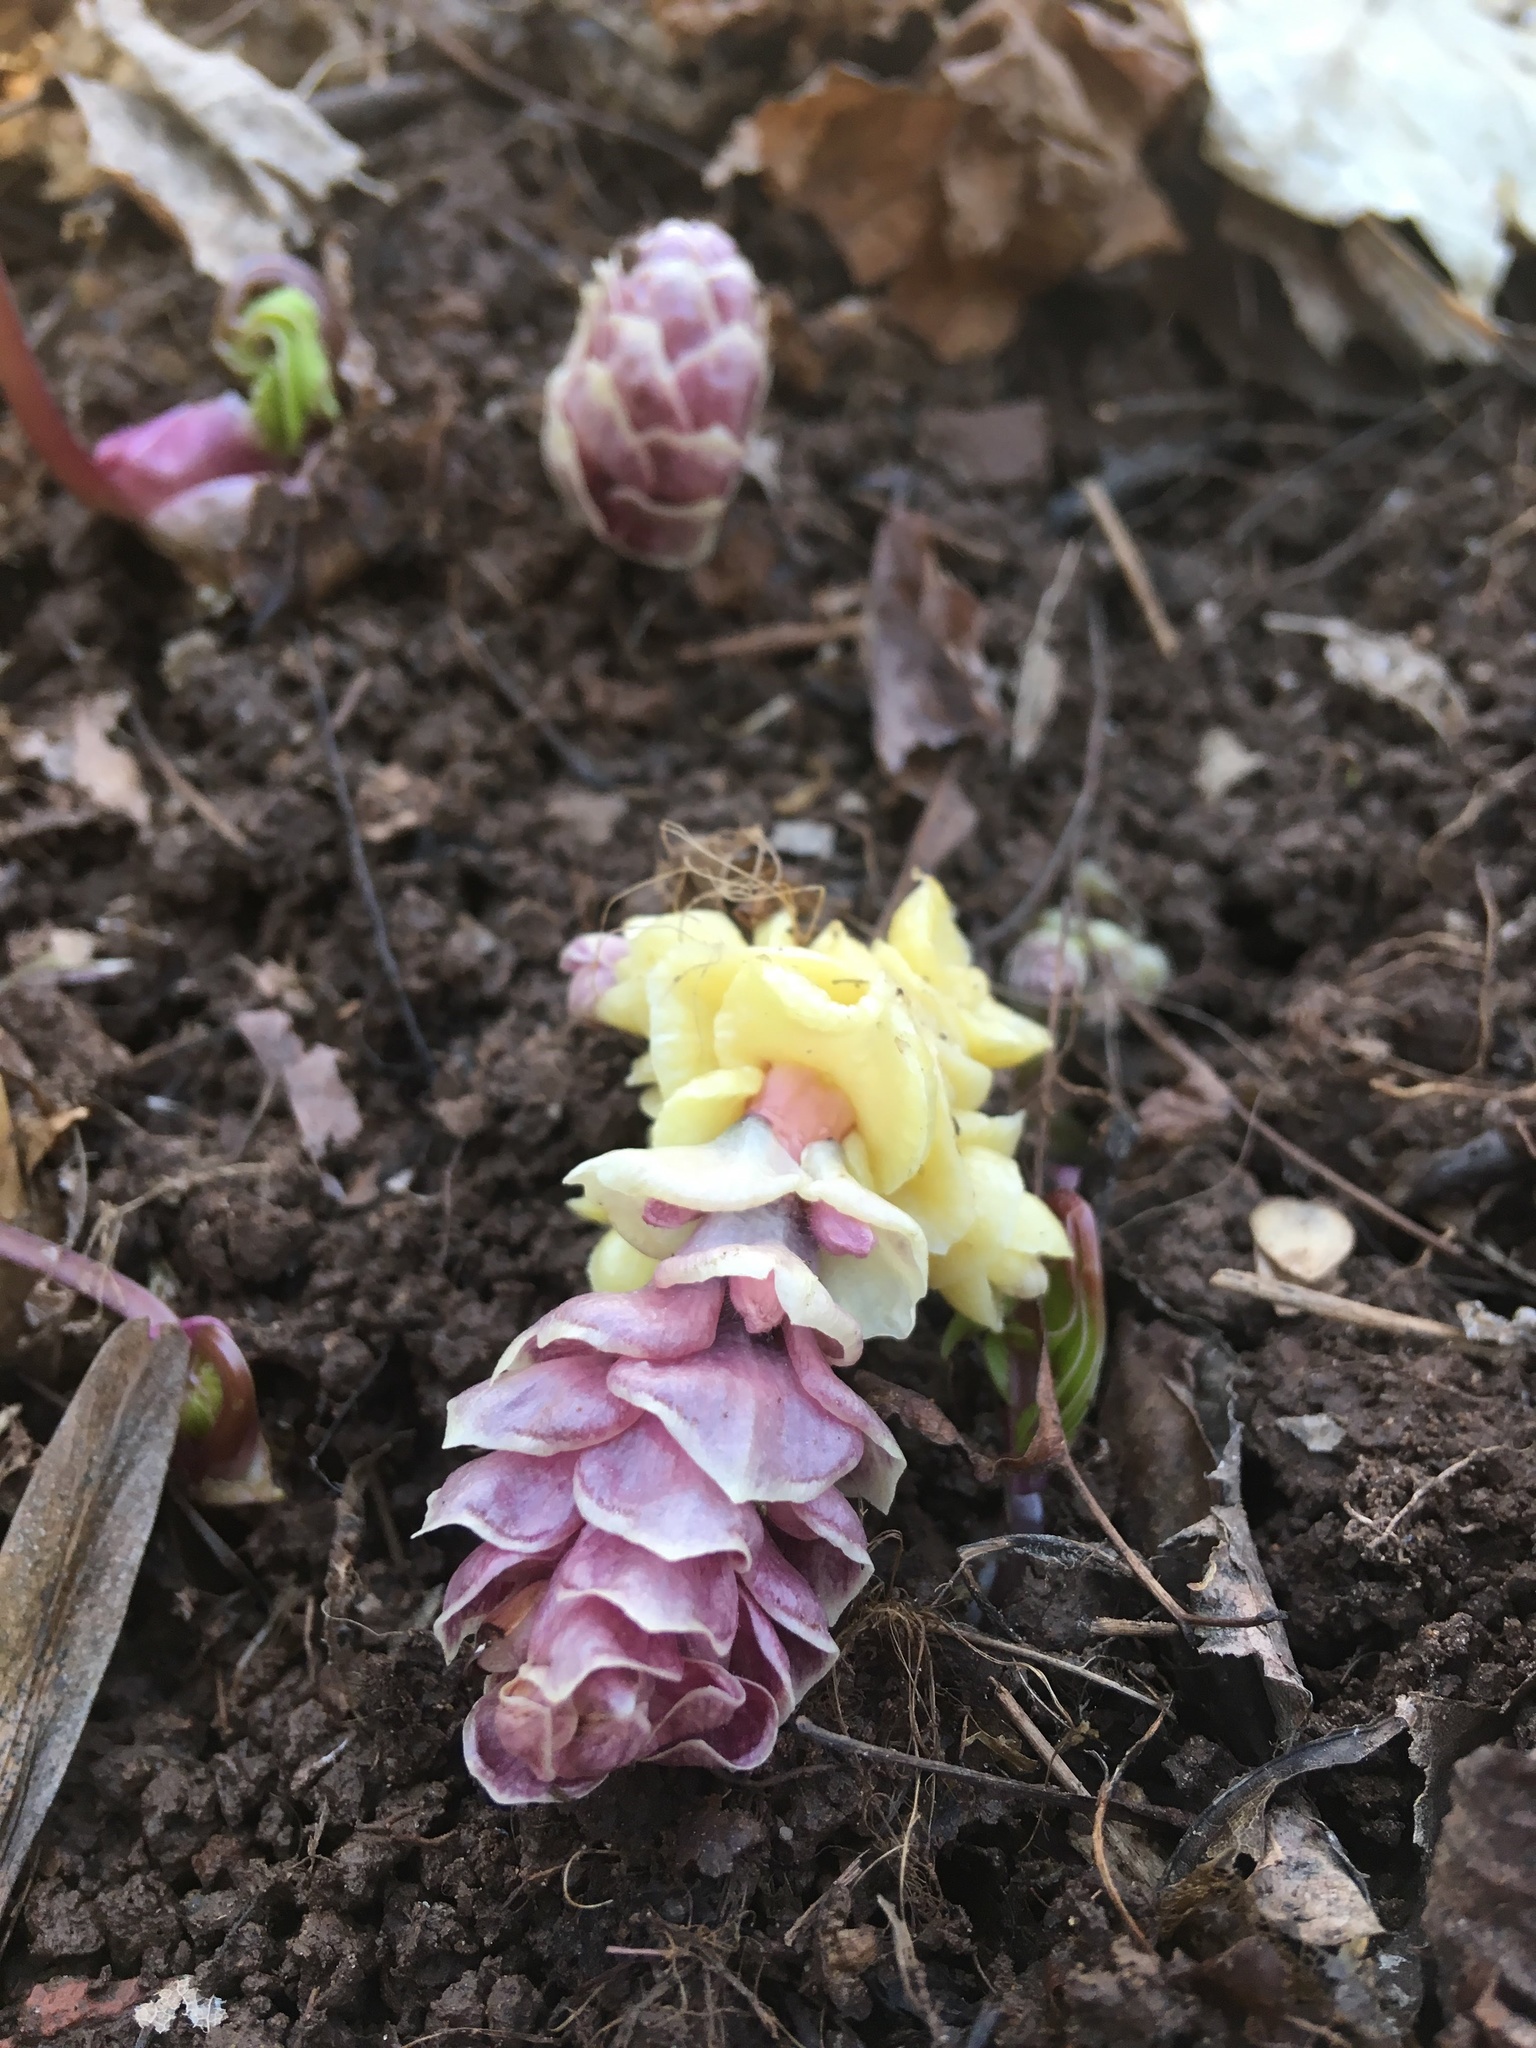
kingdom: Plantae
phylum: Tracheophyta
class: Magnoliopsida
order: Lamiales
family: Orobanchaceae
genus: Lathraea
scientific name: Lathraea squamaria
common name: Toothwort
